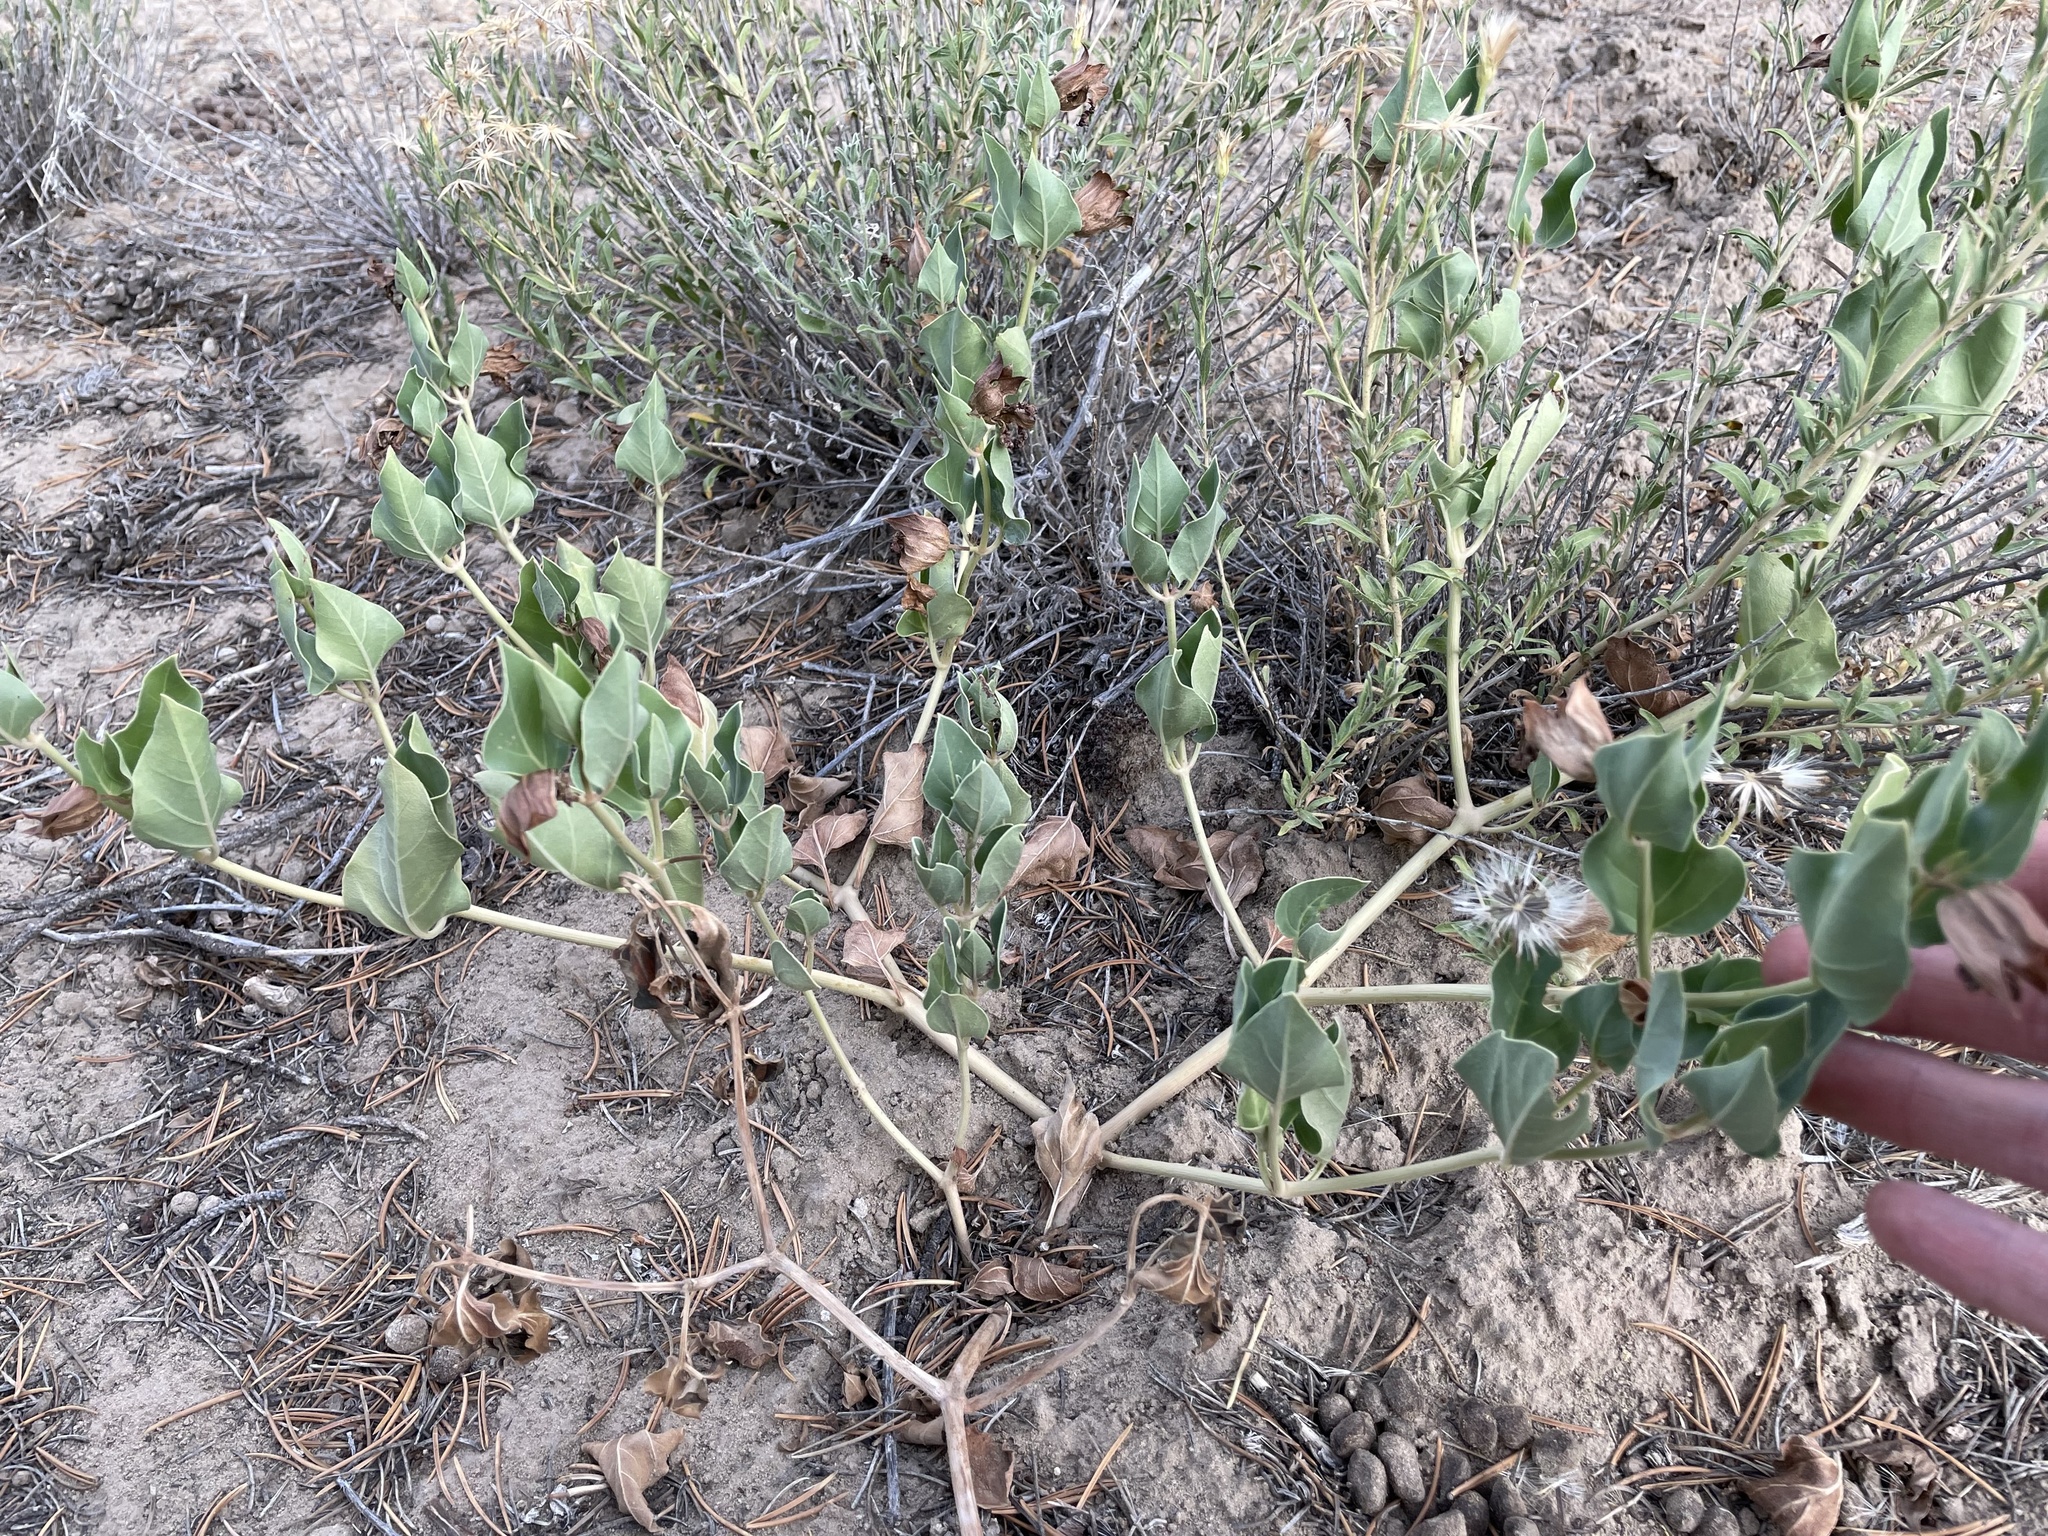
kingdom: Plantae
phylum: Tracheophyta
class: Magnoliopsida
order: Caryophyllales
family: Nyctaginaceae
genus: Mirabilis
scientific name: Mirabilis multiflora
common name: Froebel's four-o'clock
